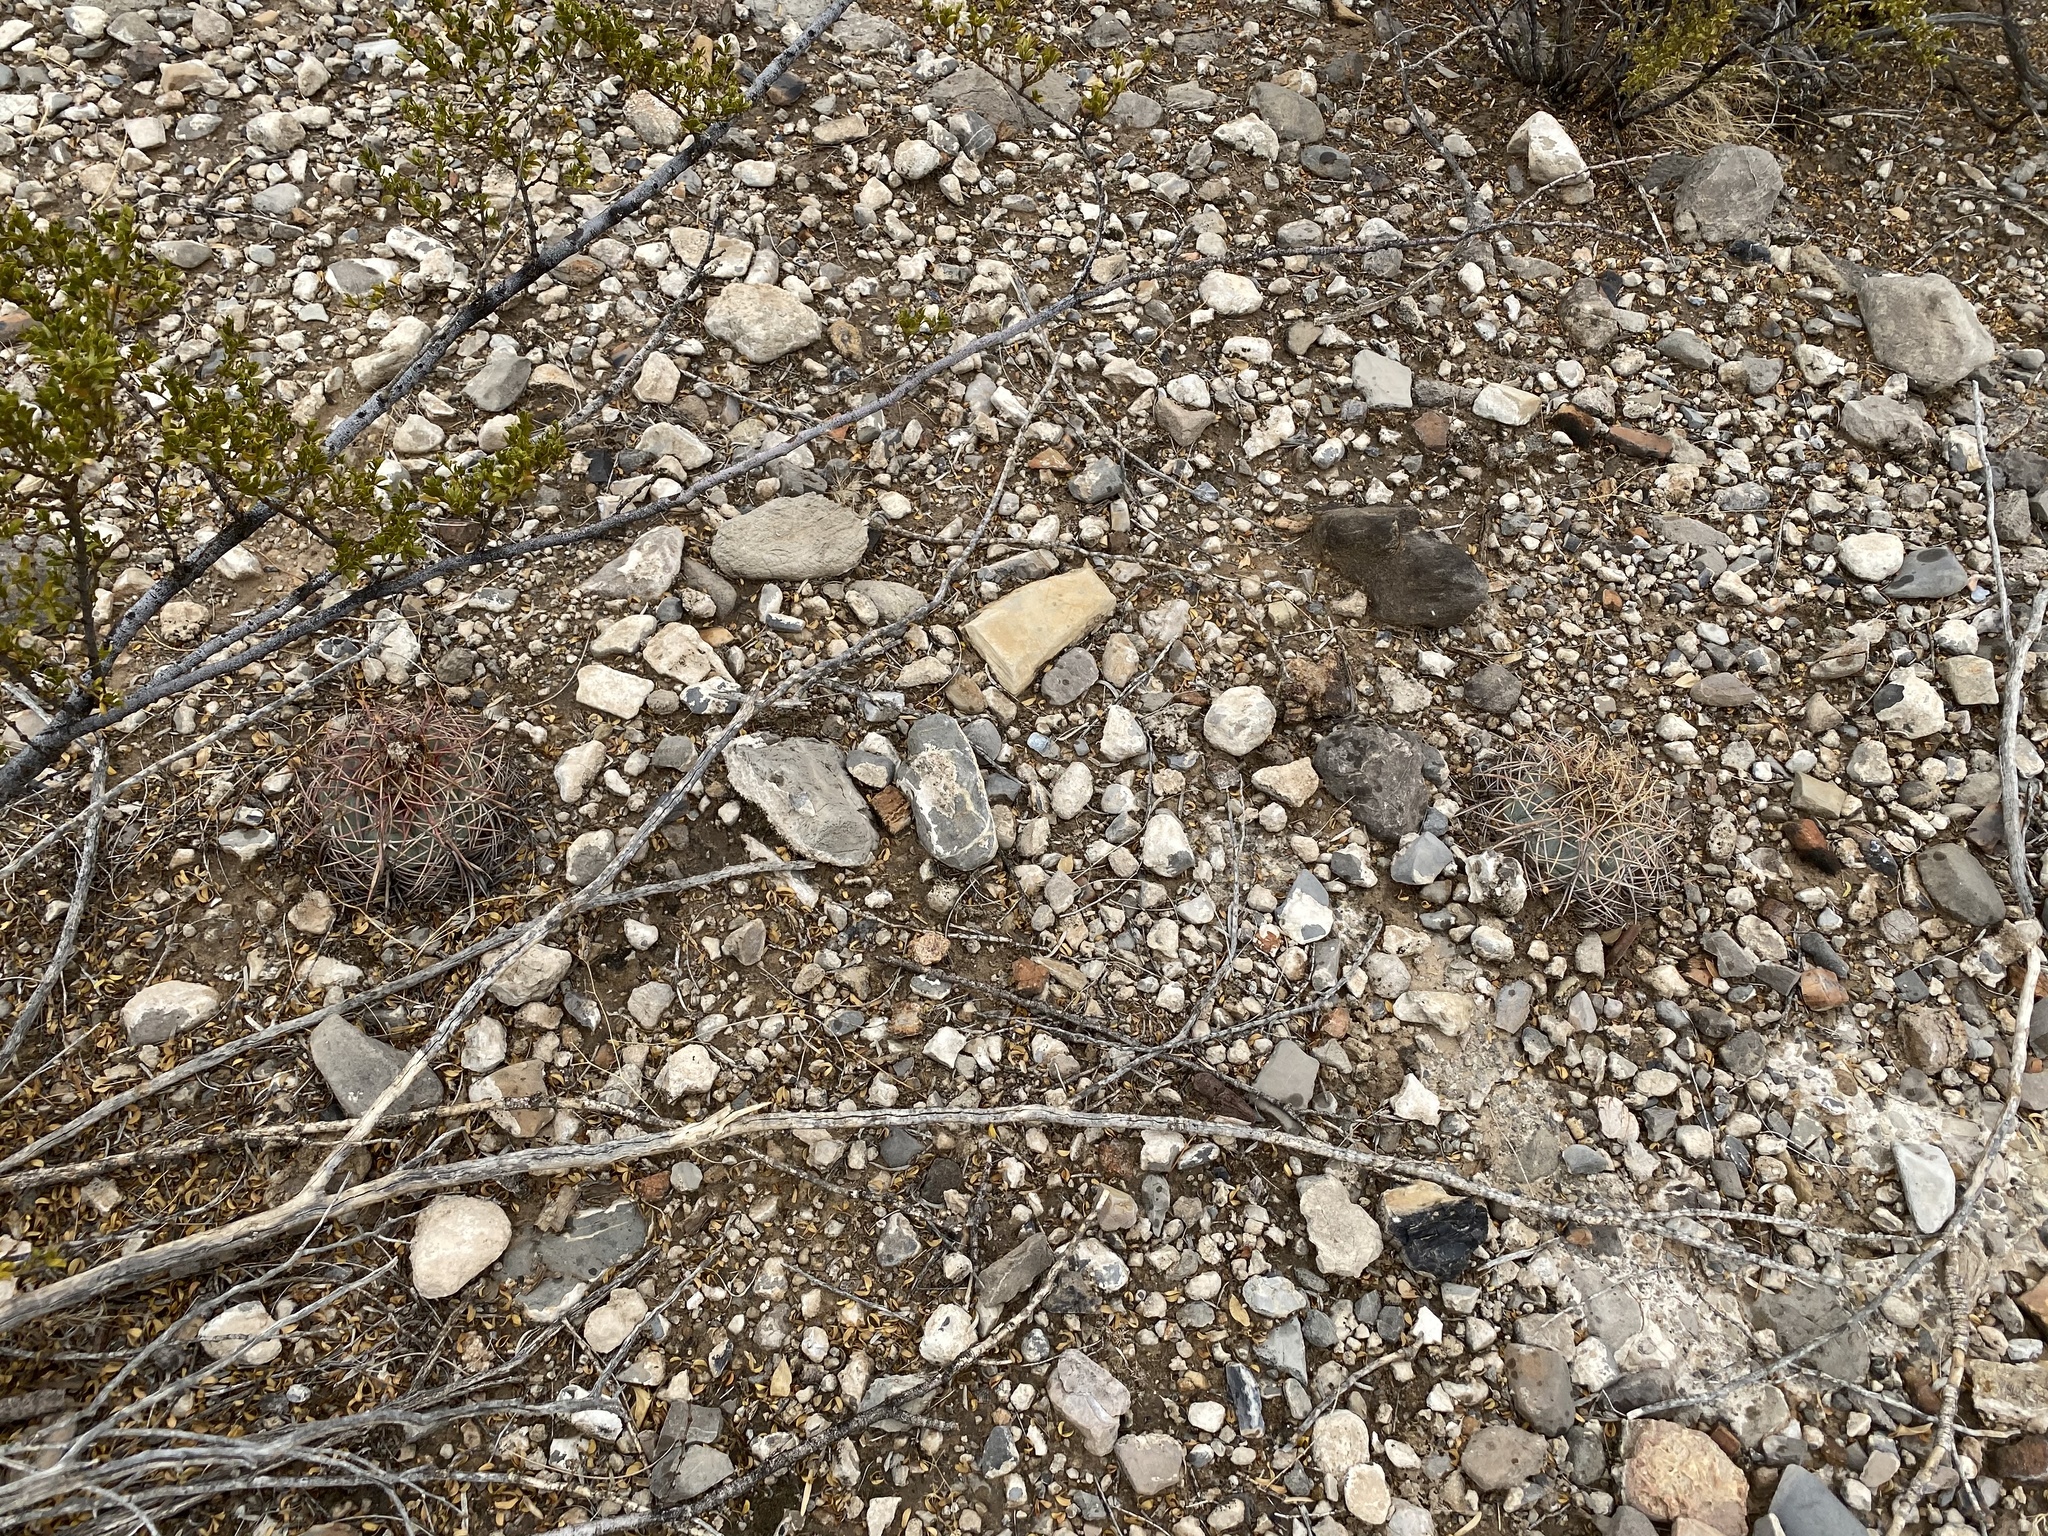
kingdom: Plantae
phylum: Tracheophyta
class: Magnoliopsida
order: Caryophyllales
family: Cactaceae
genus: Echinocactus
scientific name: Echinocactus horizonthalonius
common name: Devilshead
